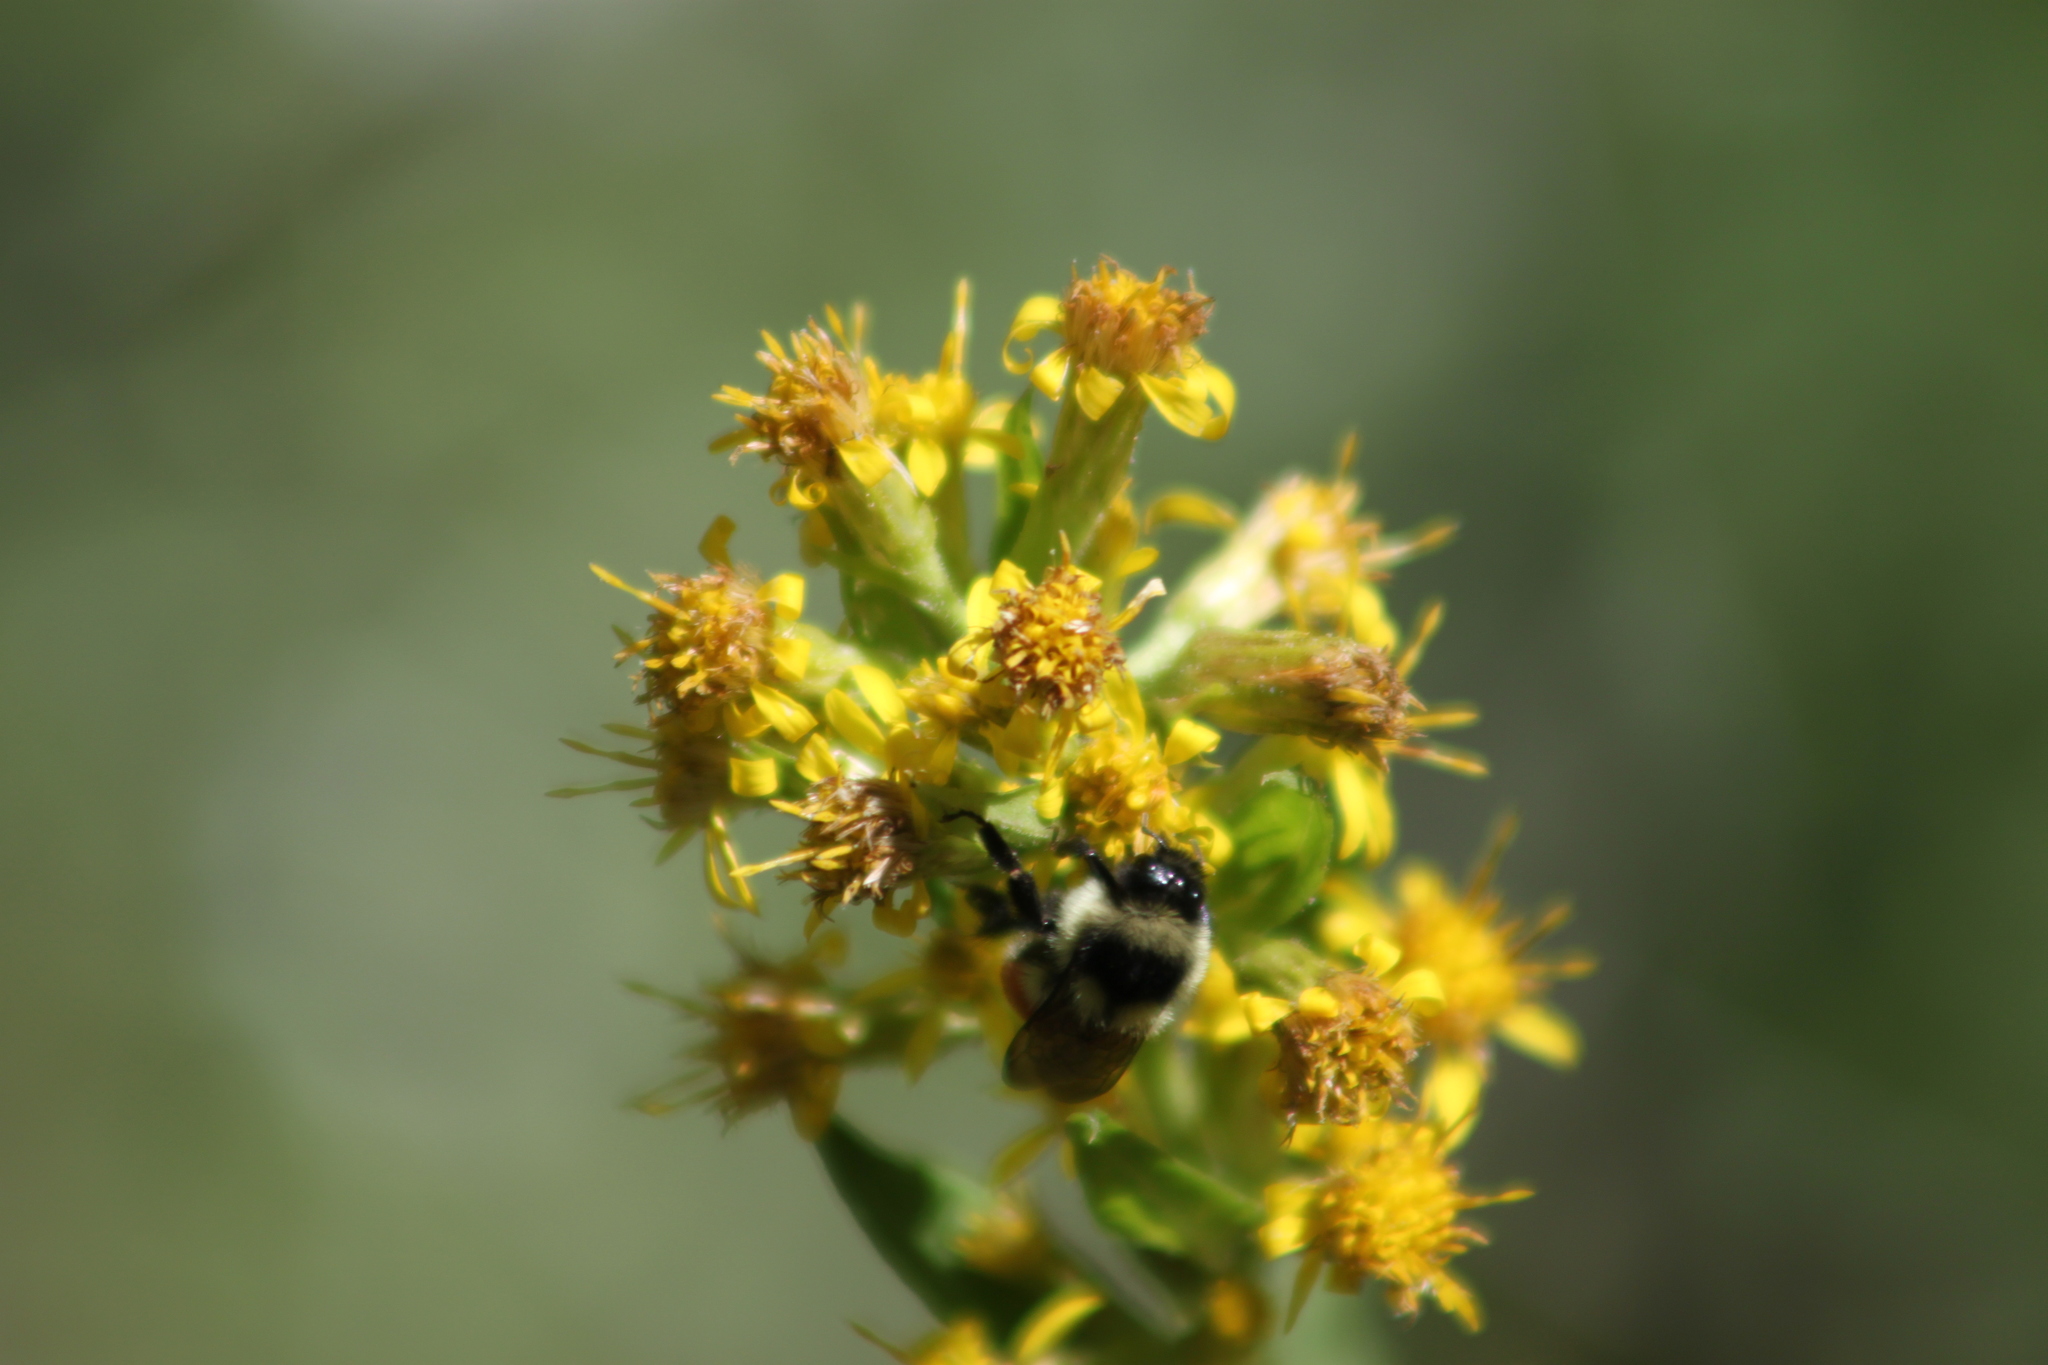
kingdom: Animalia
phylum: Arthropoda
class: Insecta
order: Hymenoptera
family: Apidae
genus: Bombus
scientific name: Bombus ternarius
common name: Tri-colored bumble bee
